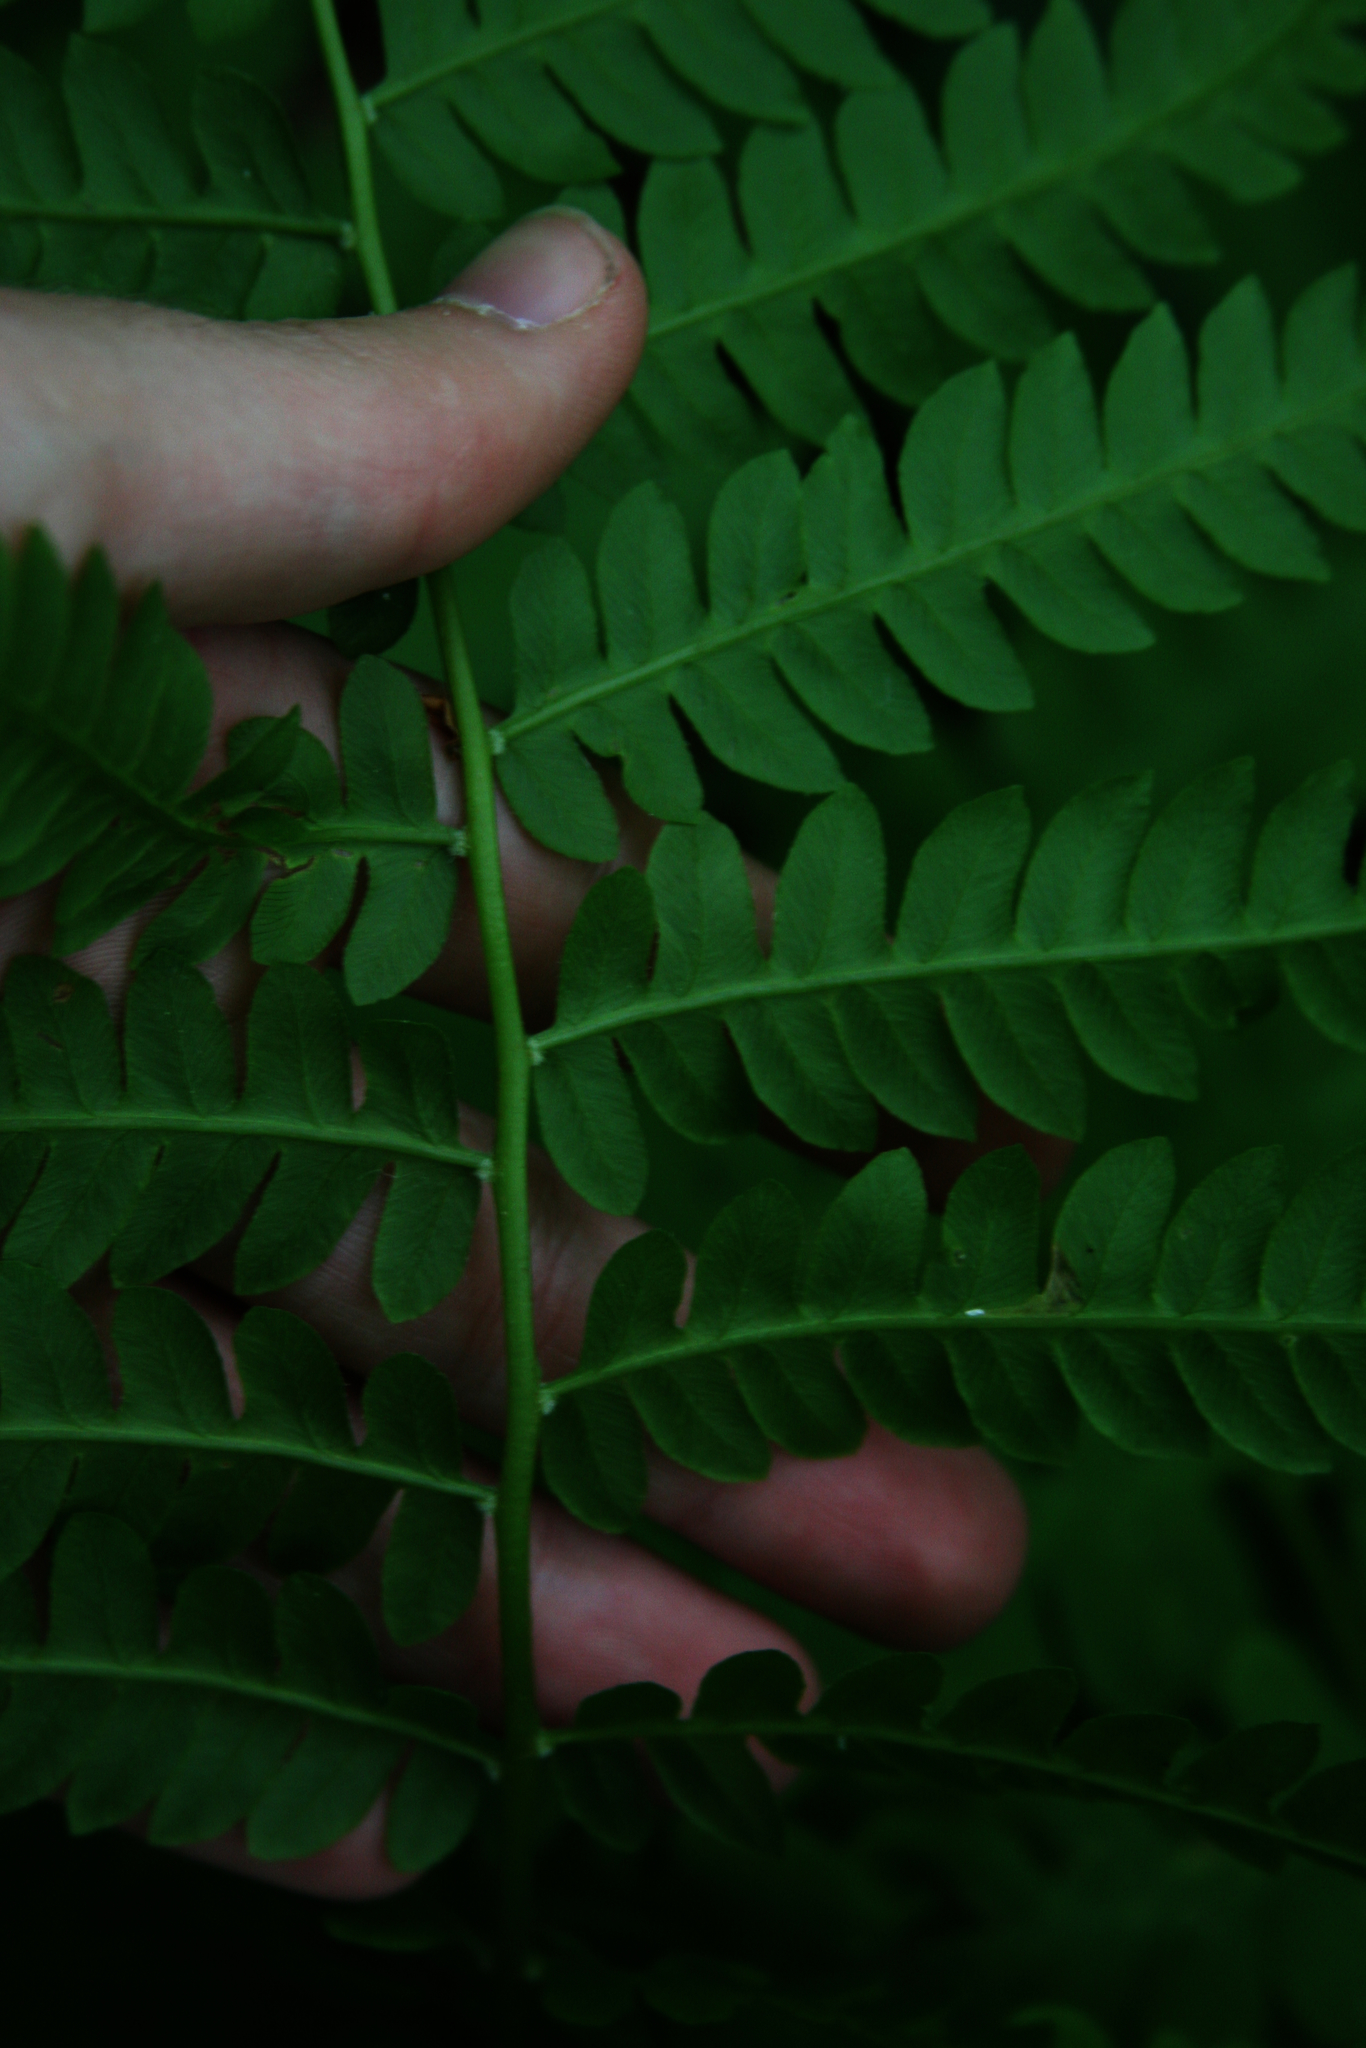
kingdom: Plantae
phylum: Tracheophyta
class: Polypodiopsida
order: Osmundales
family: Osmundaceae
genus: Osmundastrum
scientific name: Osmundastrum cinnamomeum
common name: Cinnamon fern
